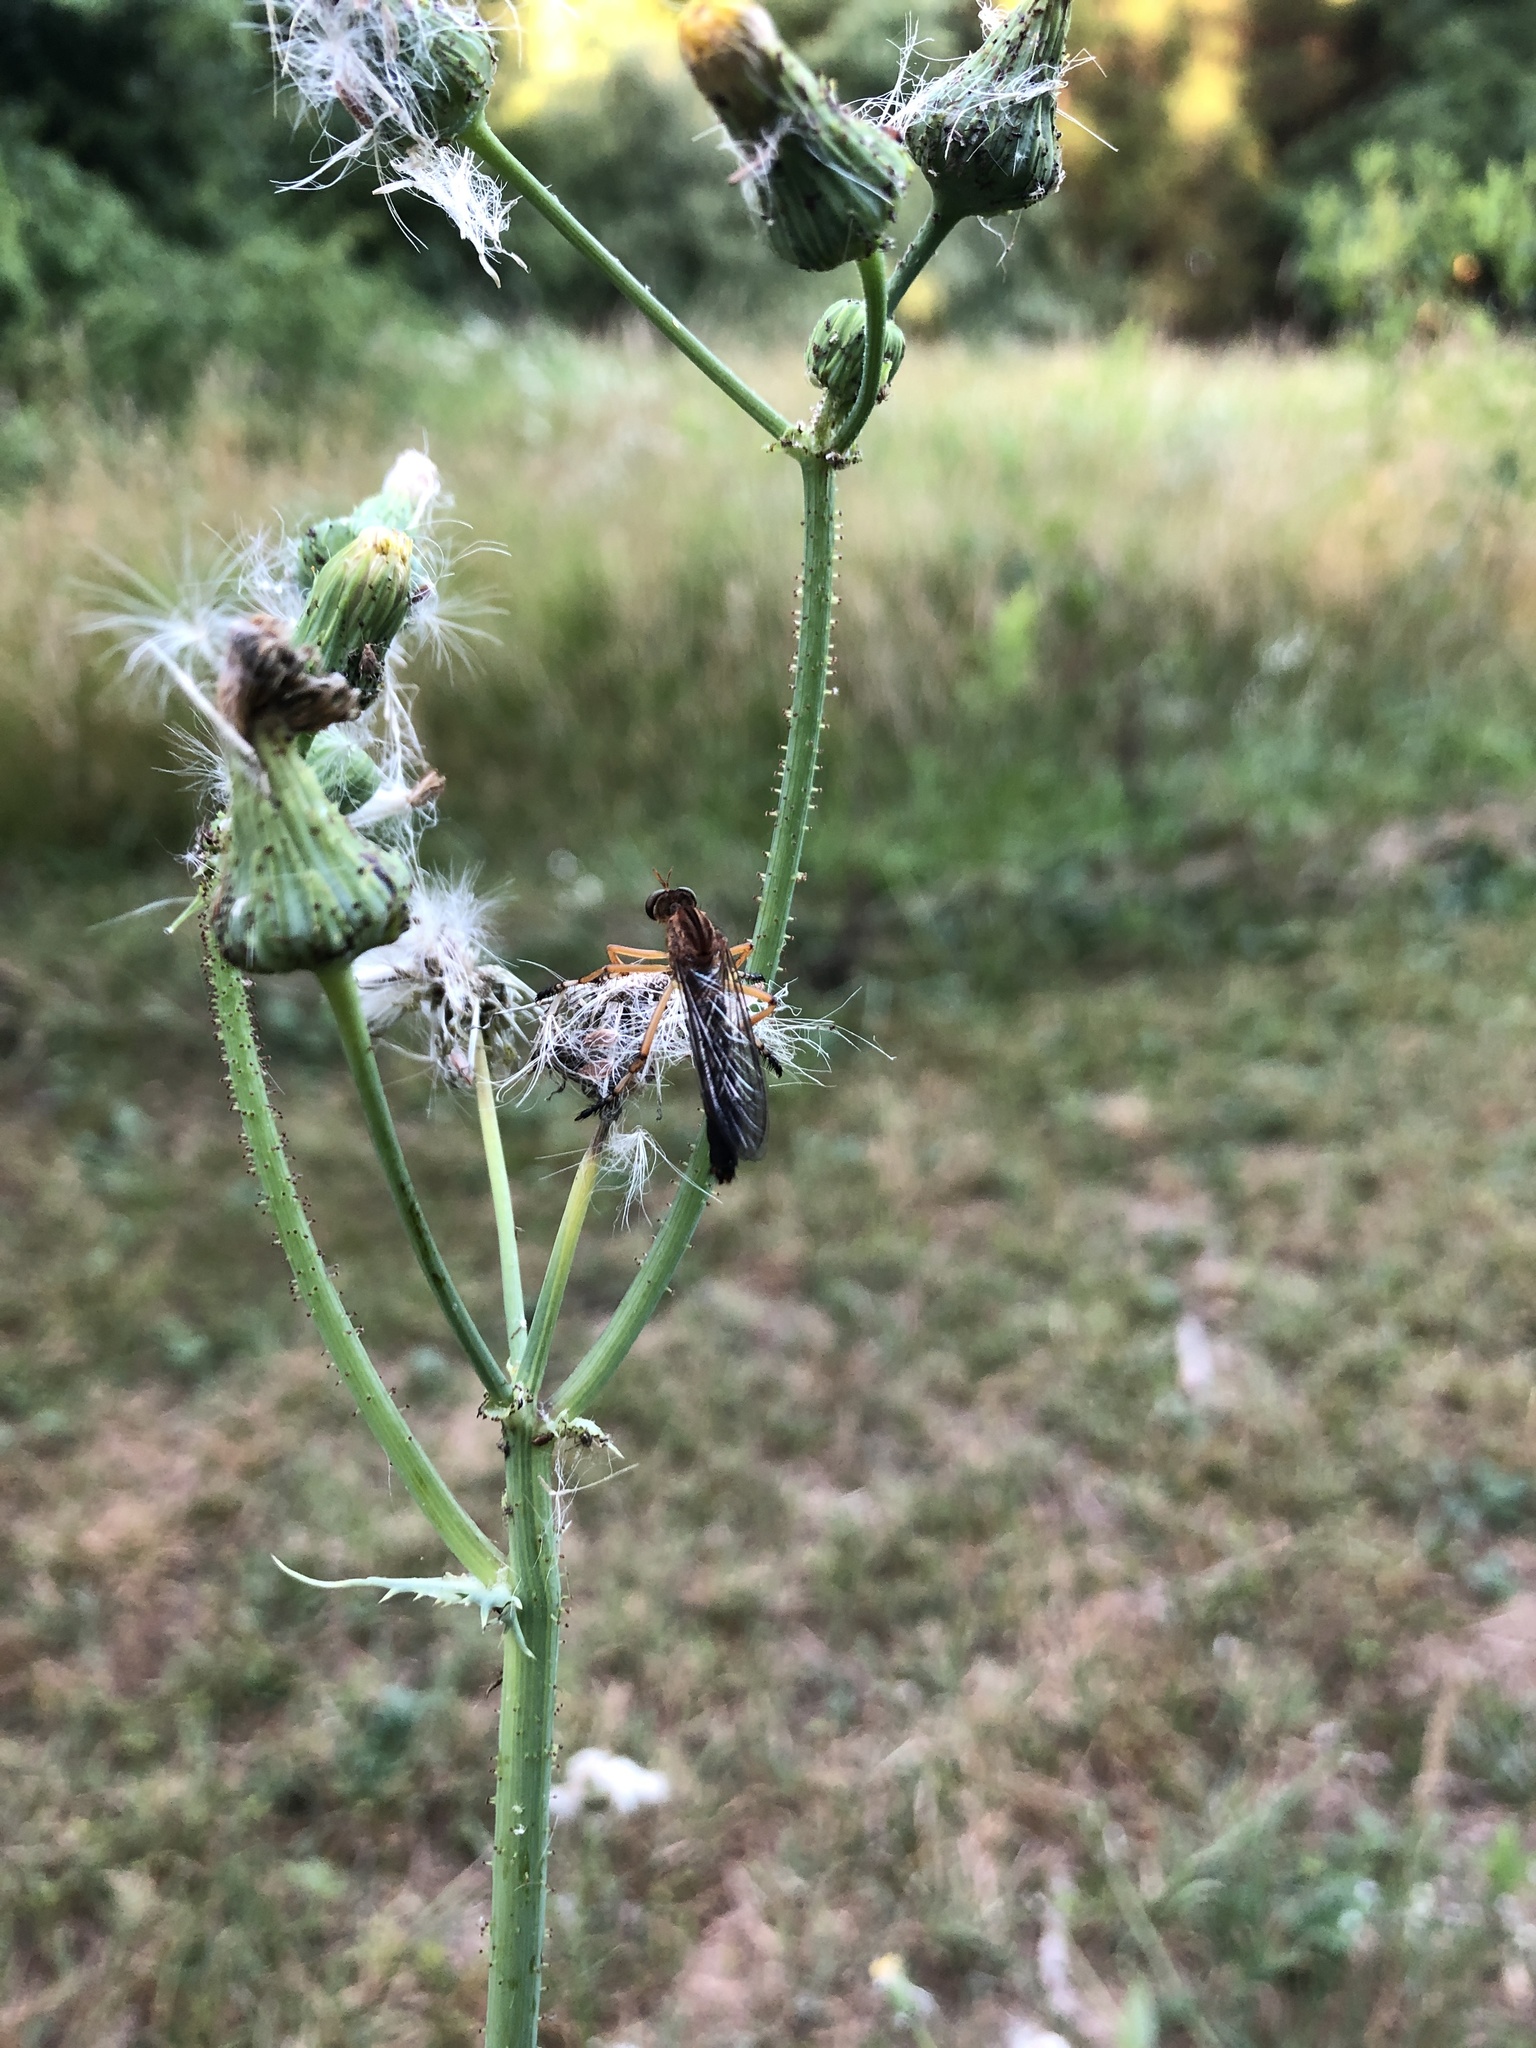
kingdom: Animalia
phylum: Arthropoda
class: Insecta
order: Diptera
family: Asilidae
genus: Diogmites
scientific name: Diogmites discolor
